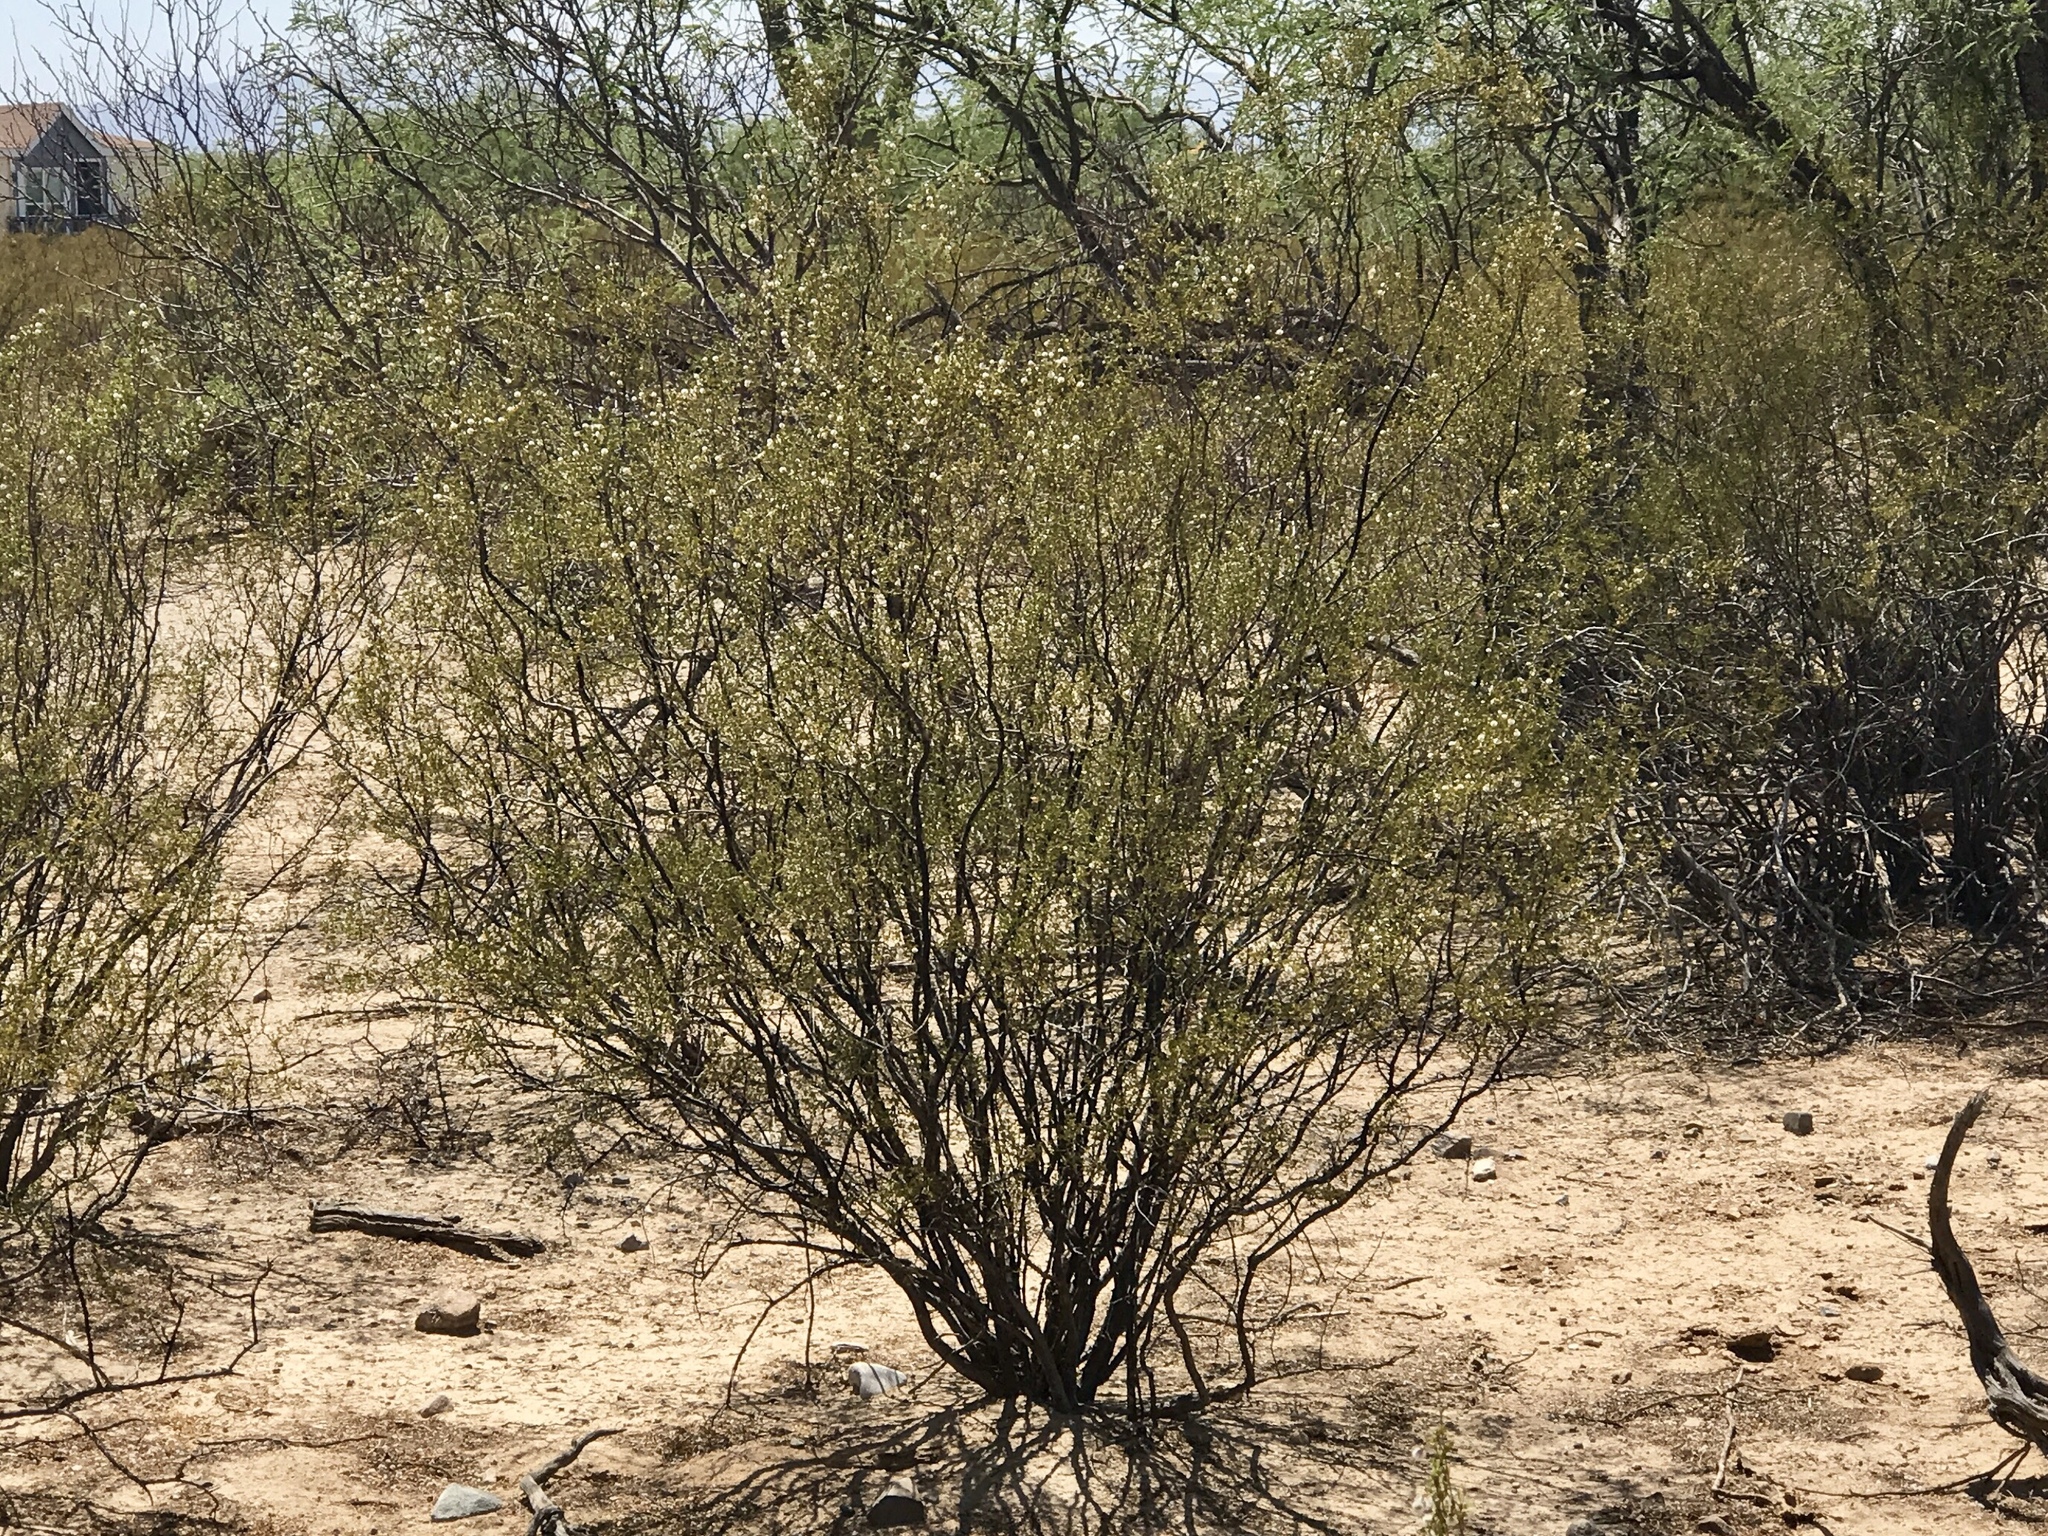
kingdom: Plantae
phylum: Tracheophyta
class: Magnoliopsida
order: Zygophyllales
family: Zygophyllaceae
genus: Larrea
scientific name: Larrea tridentata
